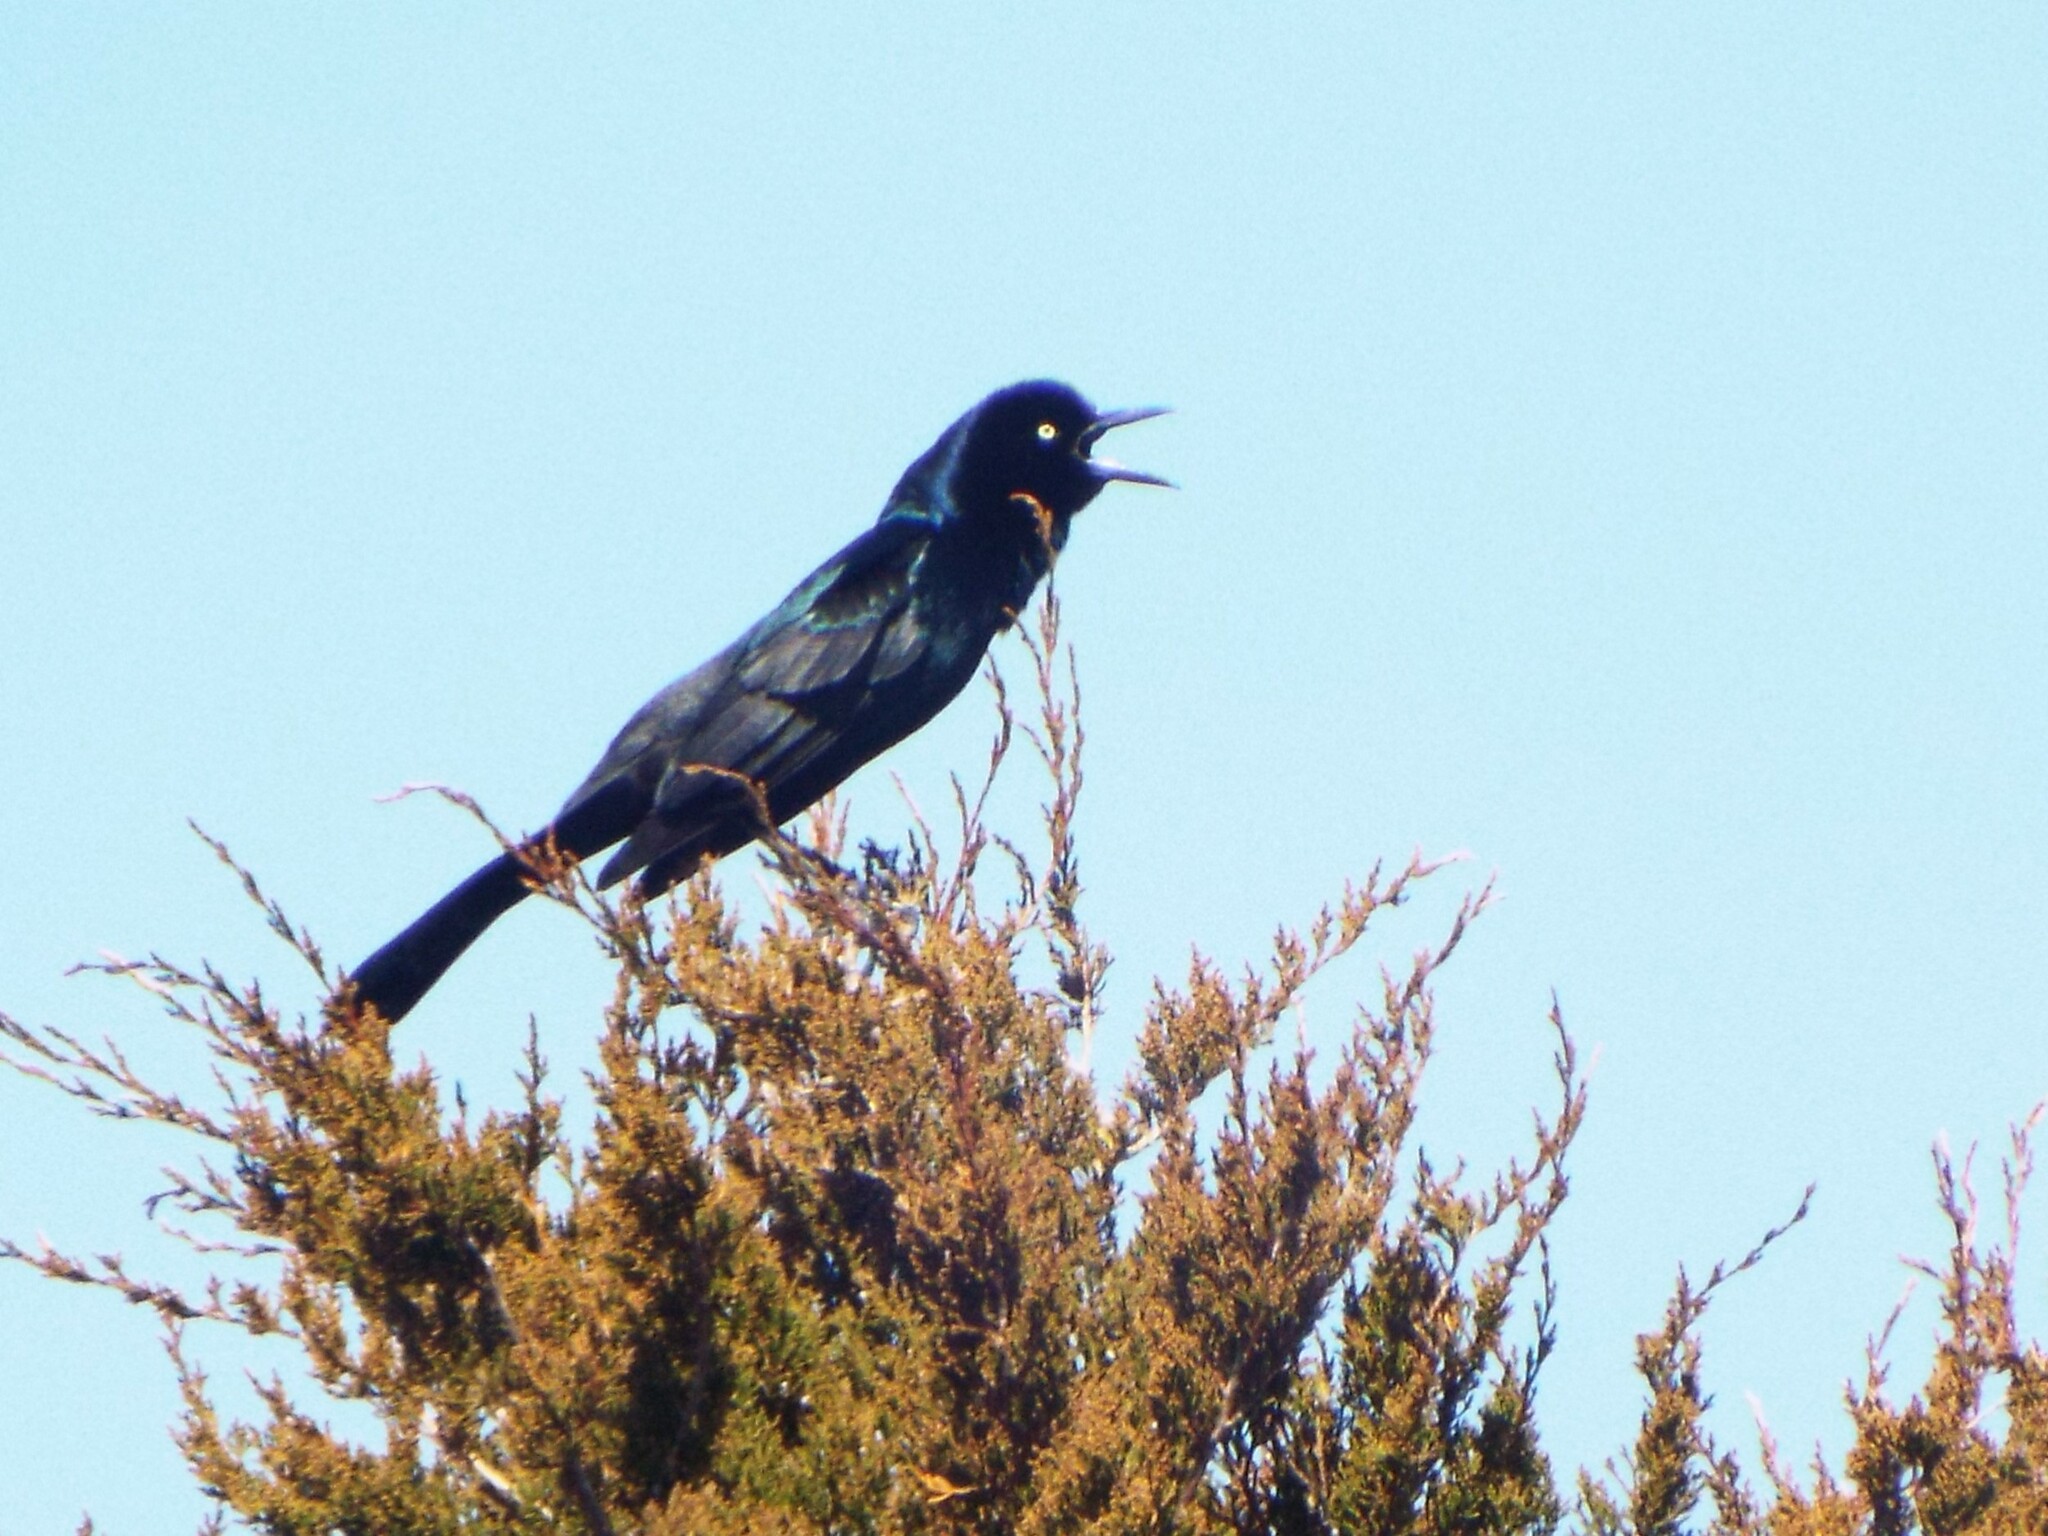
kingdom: Animalia
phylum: Chordata
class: Aves
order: Passeriformes
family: Icteridae
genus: Quiscalus
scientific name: Quiscalus major
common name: Boat-tailed grackle
